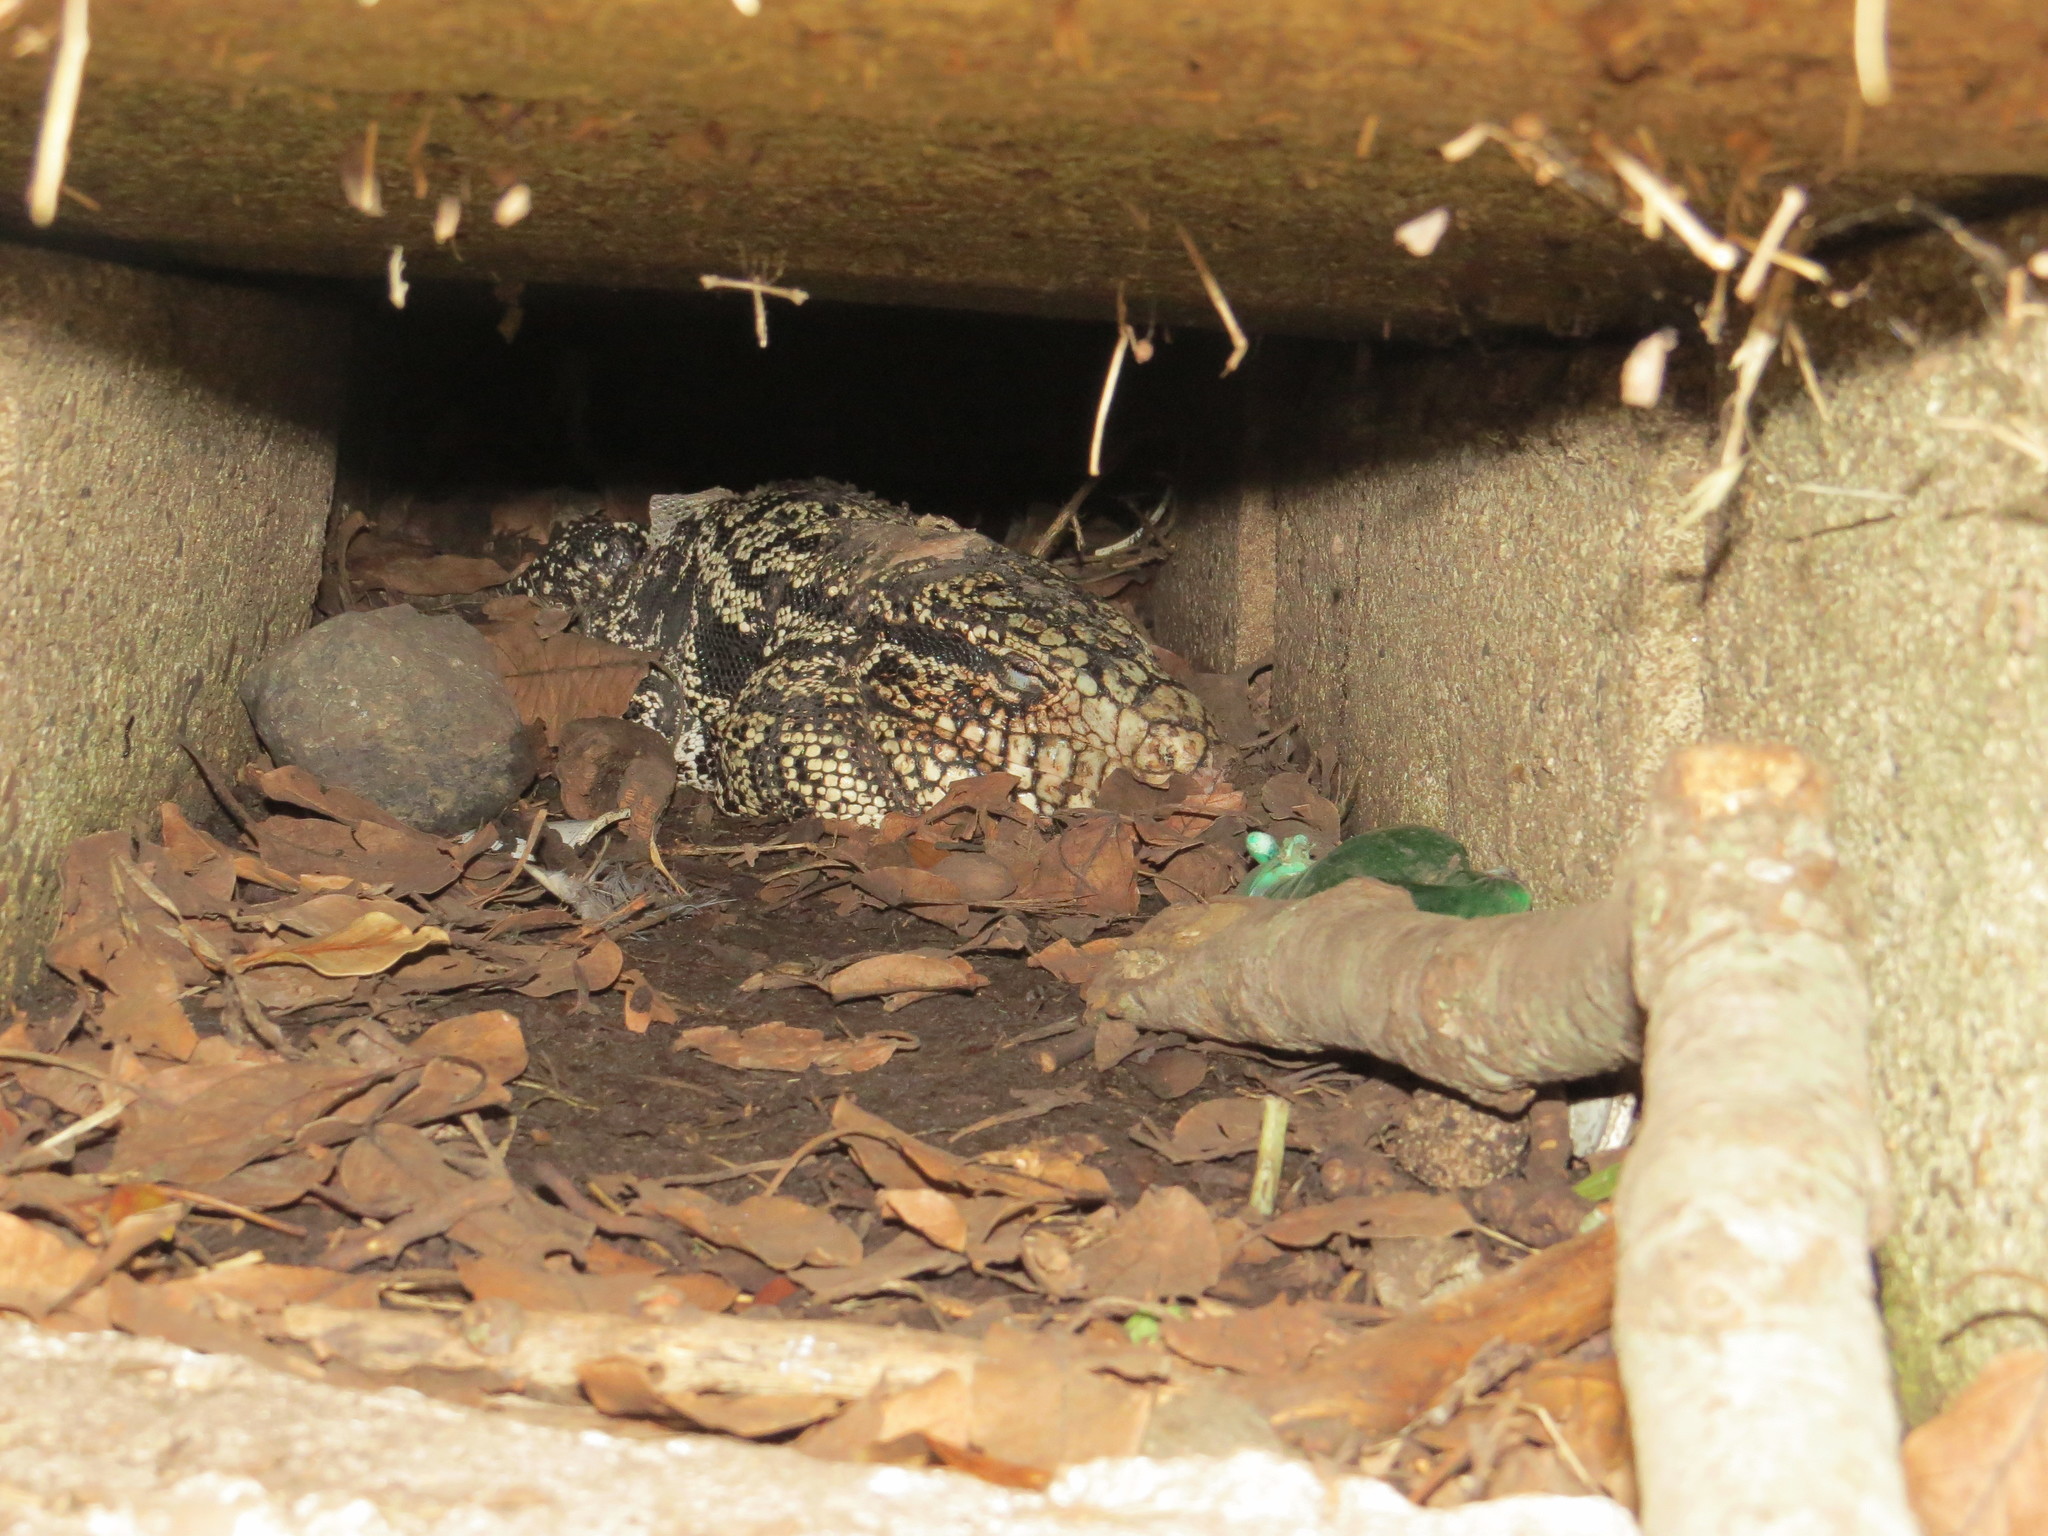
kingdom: Animalia
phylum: Chordata
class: Squamata
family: Teiidae
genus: Salvator
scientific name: Salvator merianae
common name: Argentine black and white tegu
